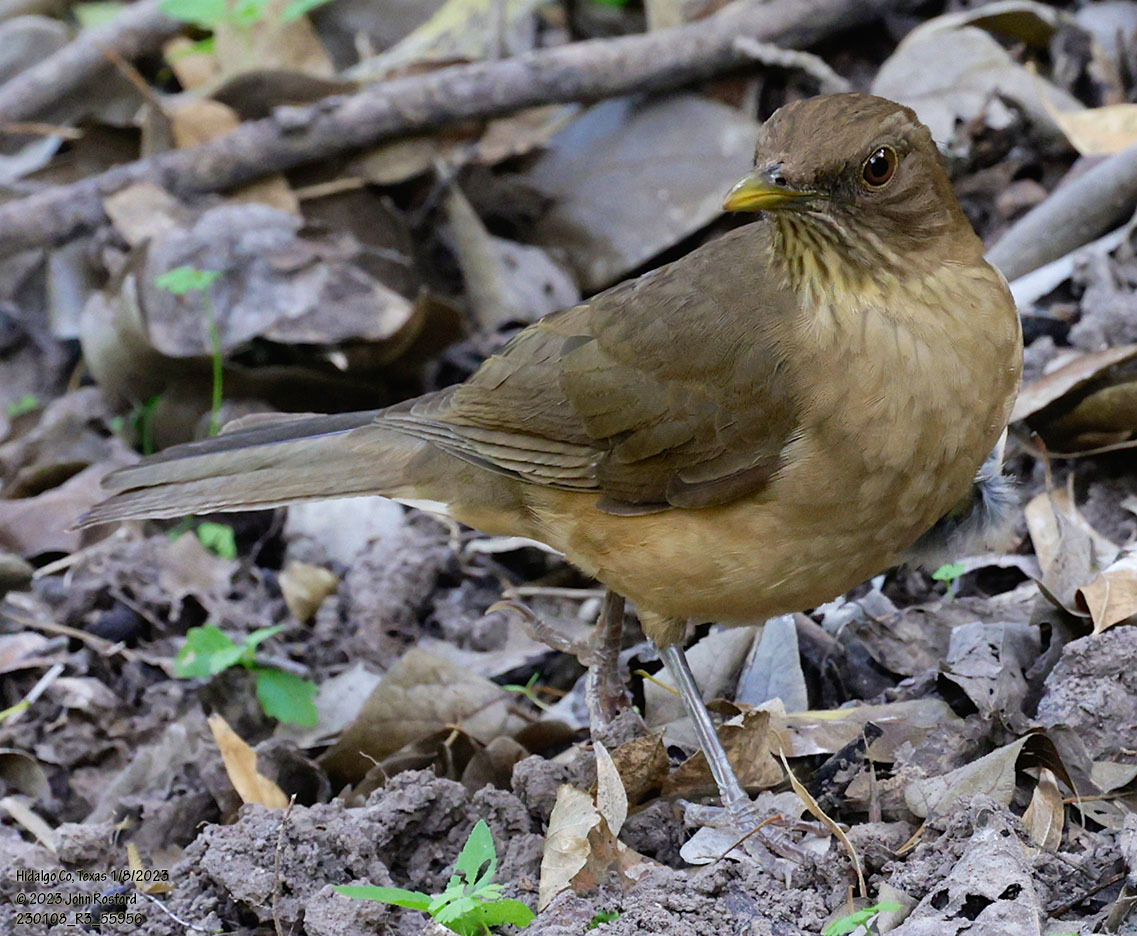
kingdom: Animalia
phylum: Chordata
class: Aves
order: Passeriformes
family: Turdidae
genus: Turdus
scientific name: Turdus grayi
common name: Clay-colored thrush
